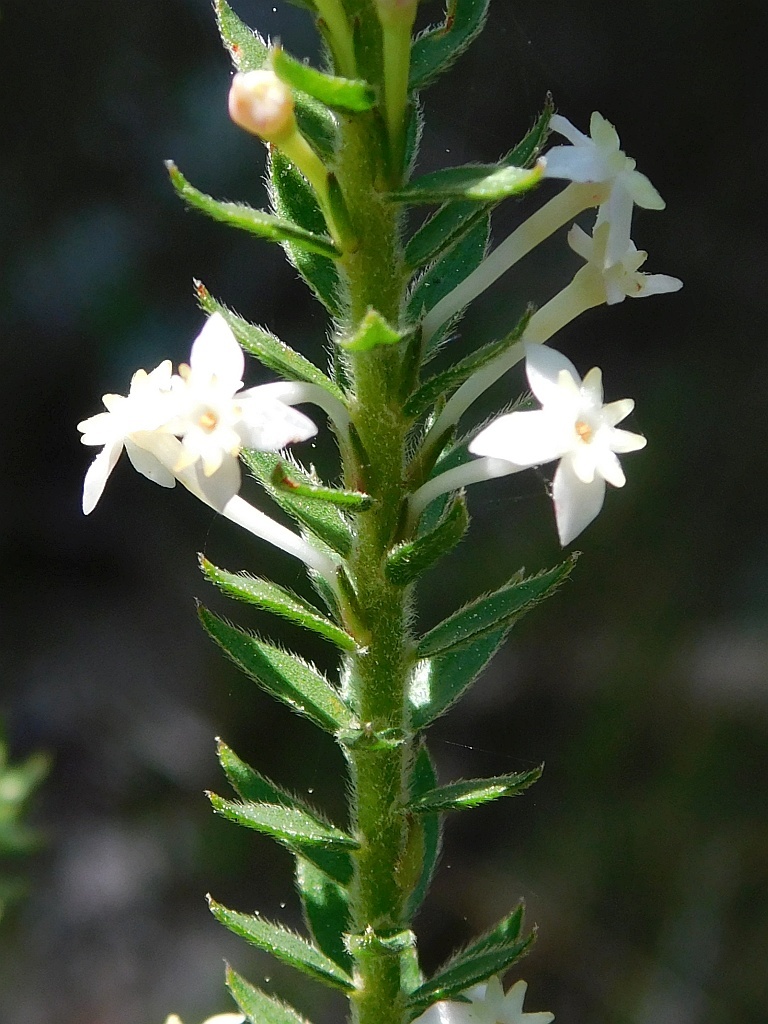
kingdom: Plantae
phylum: Tracheophyta
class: Magnoliopsida
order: Malvales
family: Thymelaeaceae
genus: Struthiola
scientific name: Struthiola hirsuta
